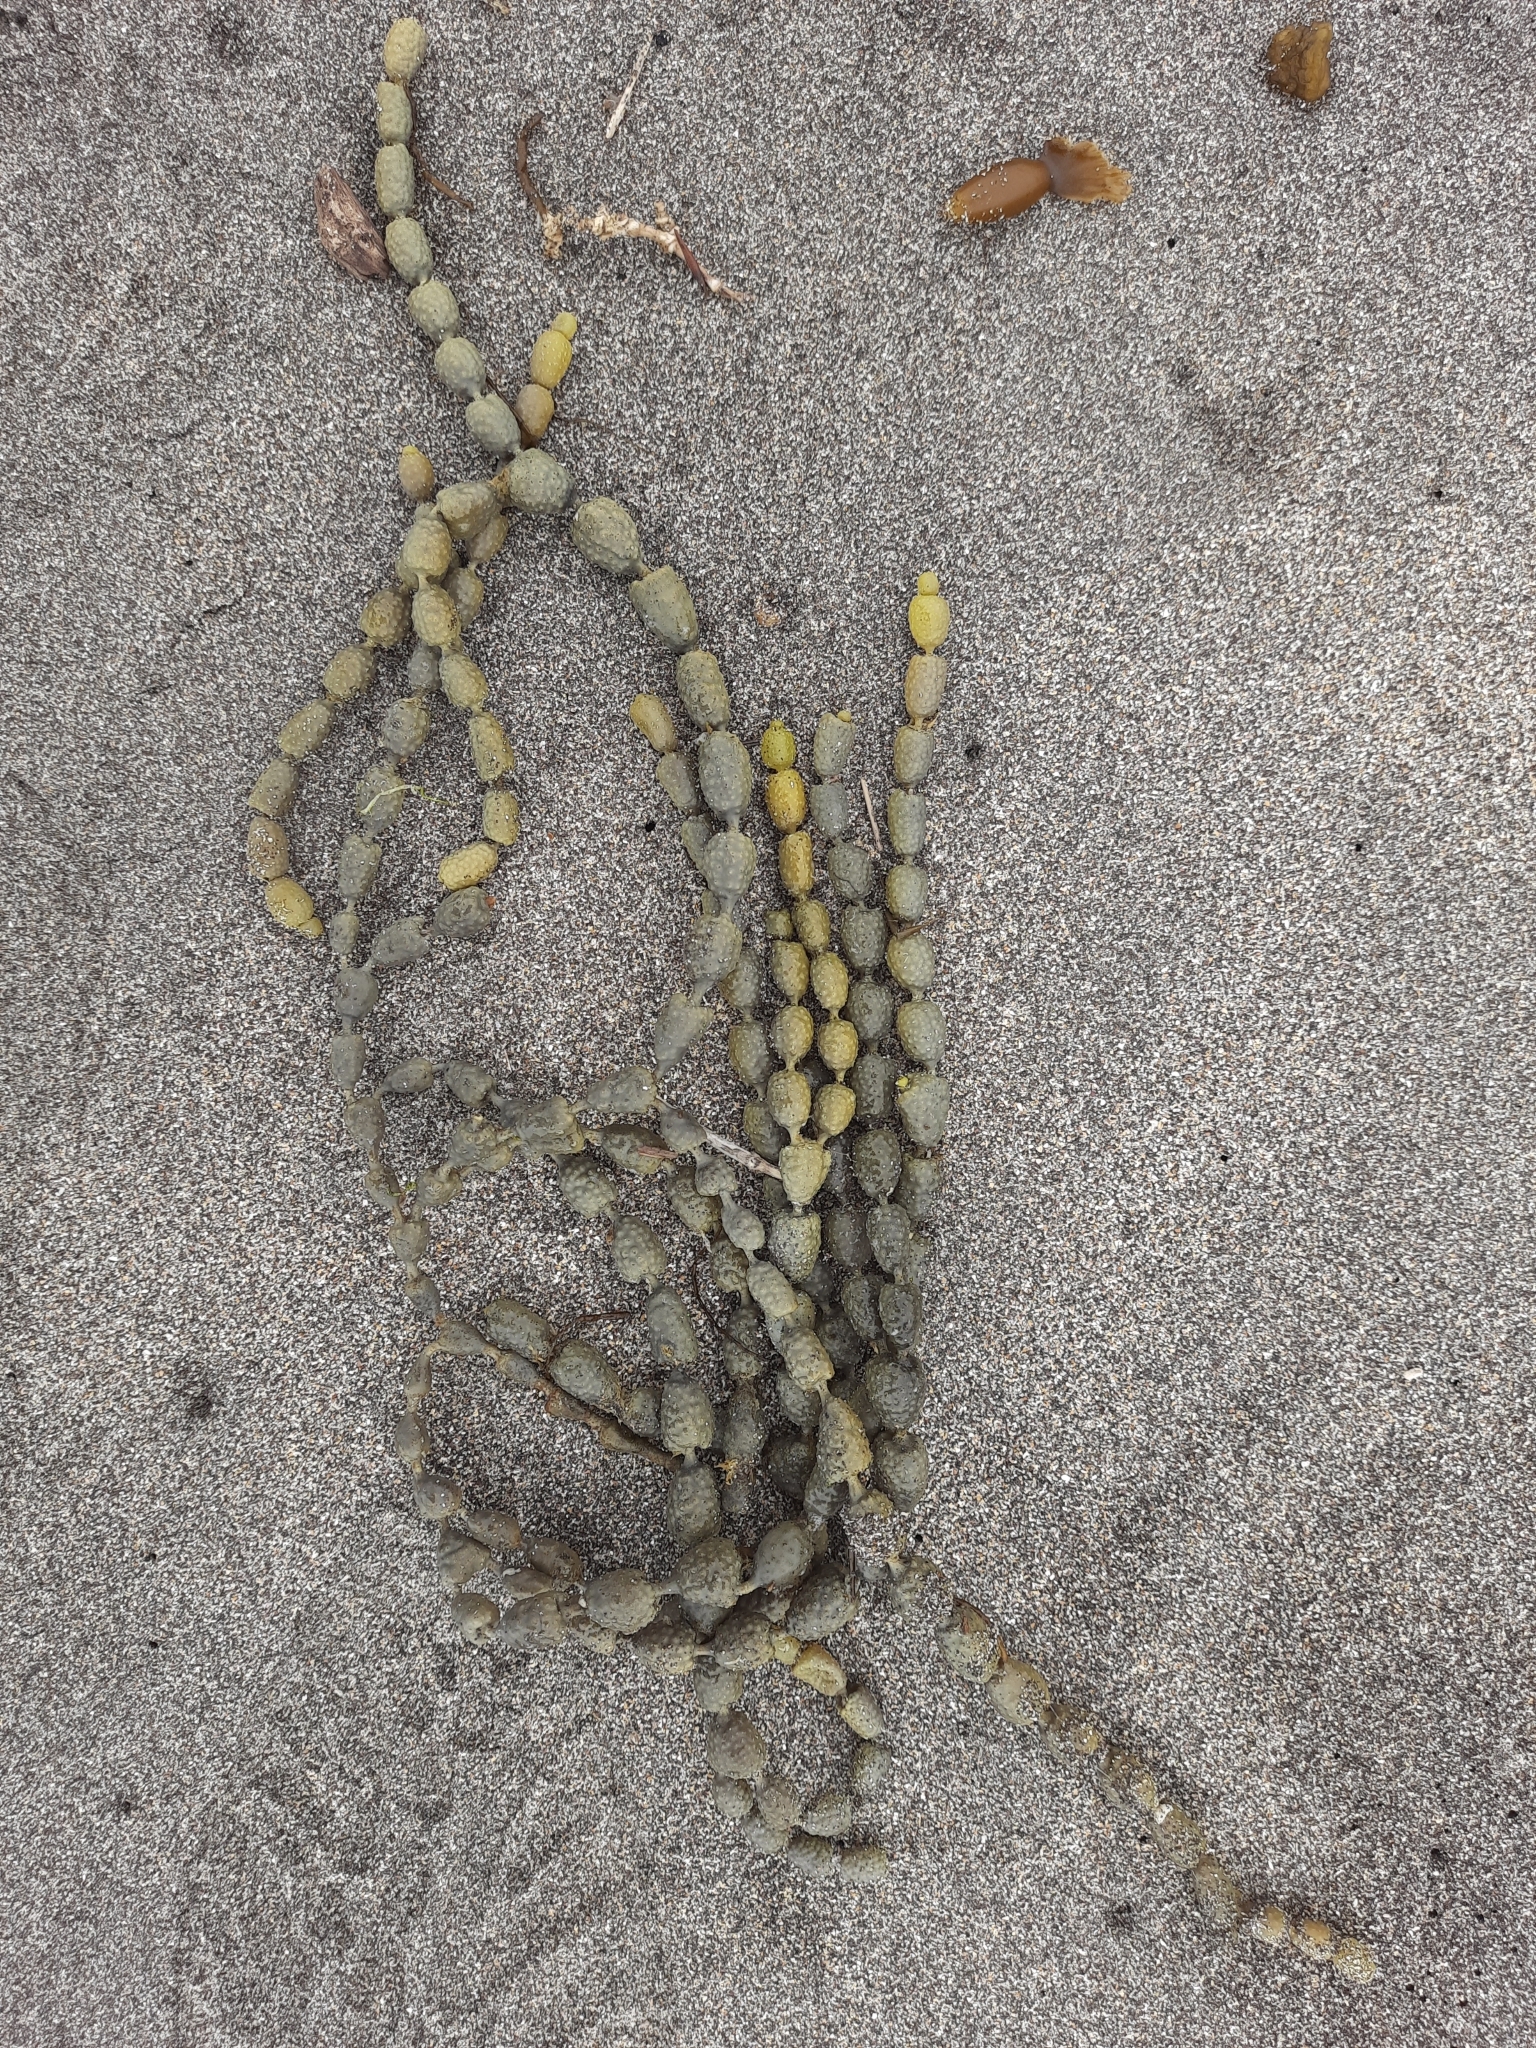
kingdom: Chromista
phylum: Ochrophyta
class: Phaeophyceae
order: Fucales
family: Hormosiraceae
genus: Hormosira
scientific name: Hormosira banksii
